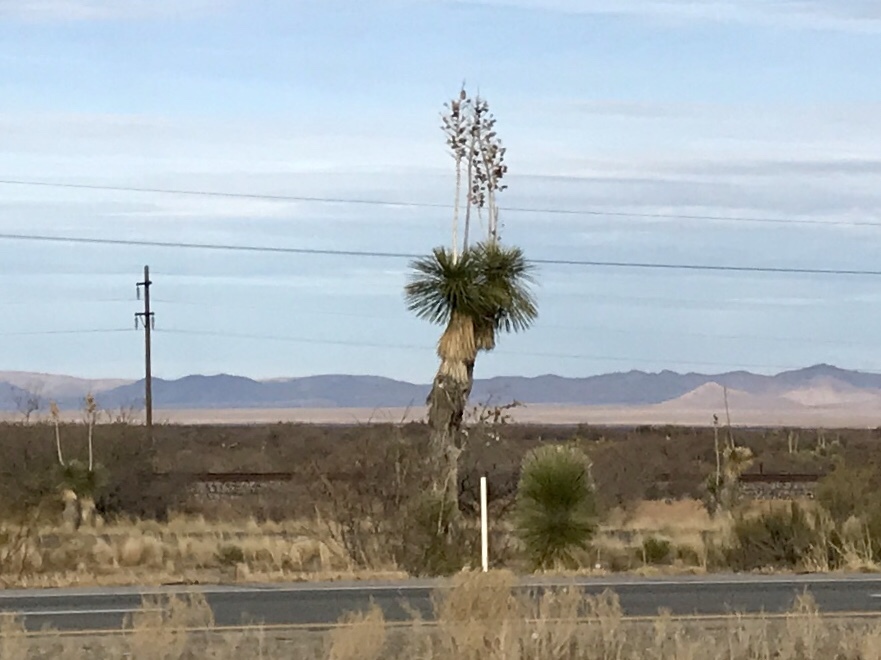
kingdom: Plantae
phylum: Tracheophyta
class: Liliopsida
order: Asparagales
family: Asparagaceae
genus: Yucca
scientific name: Yucca elata
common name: Palmella
